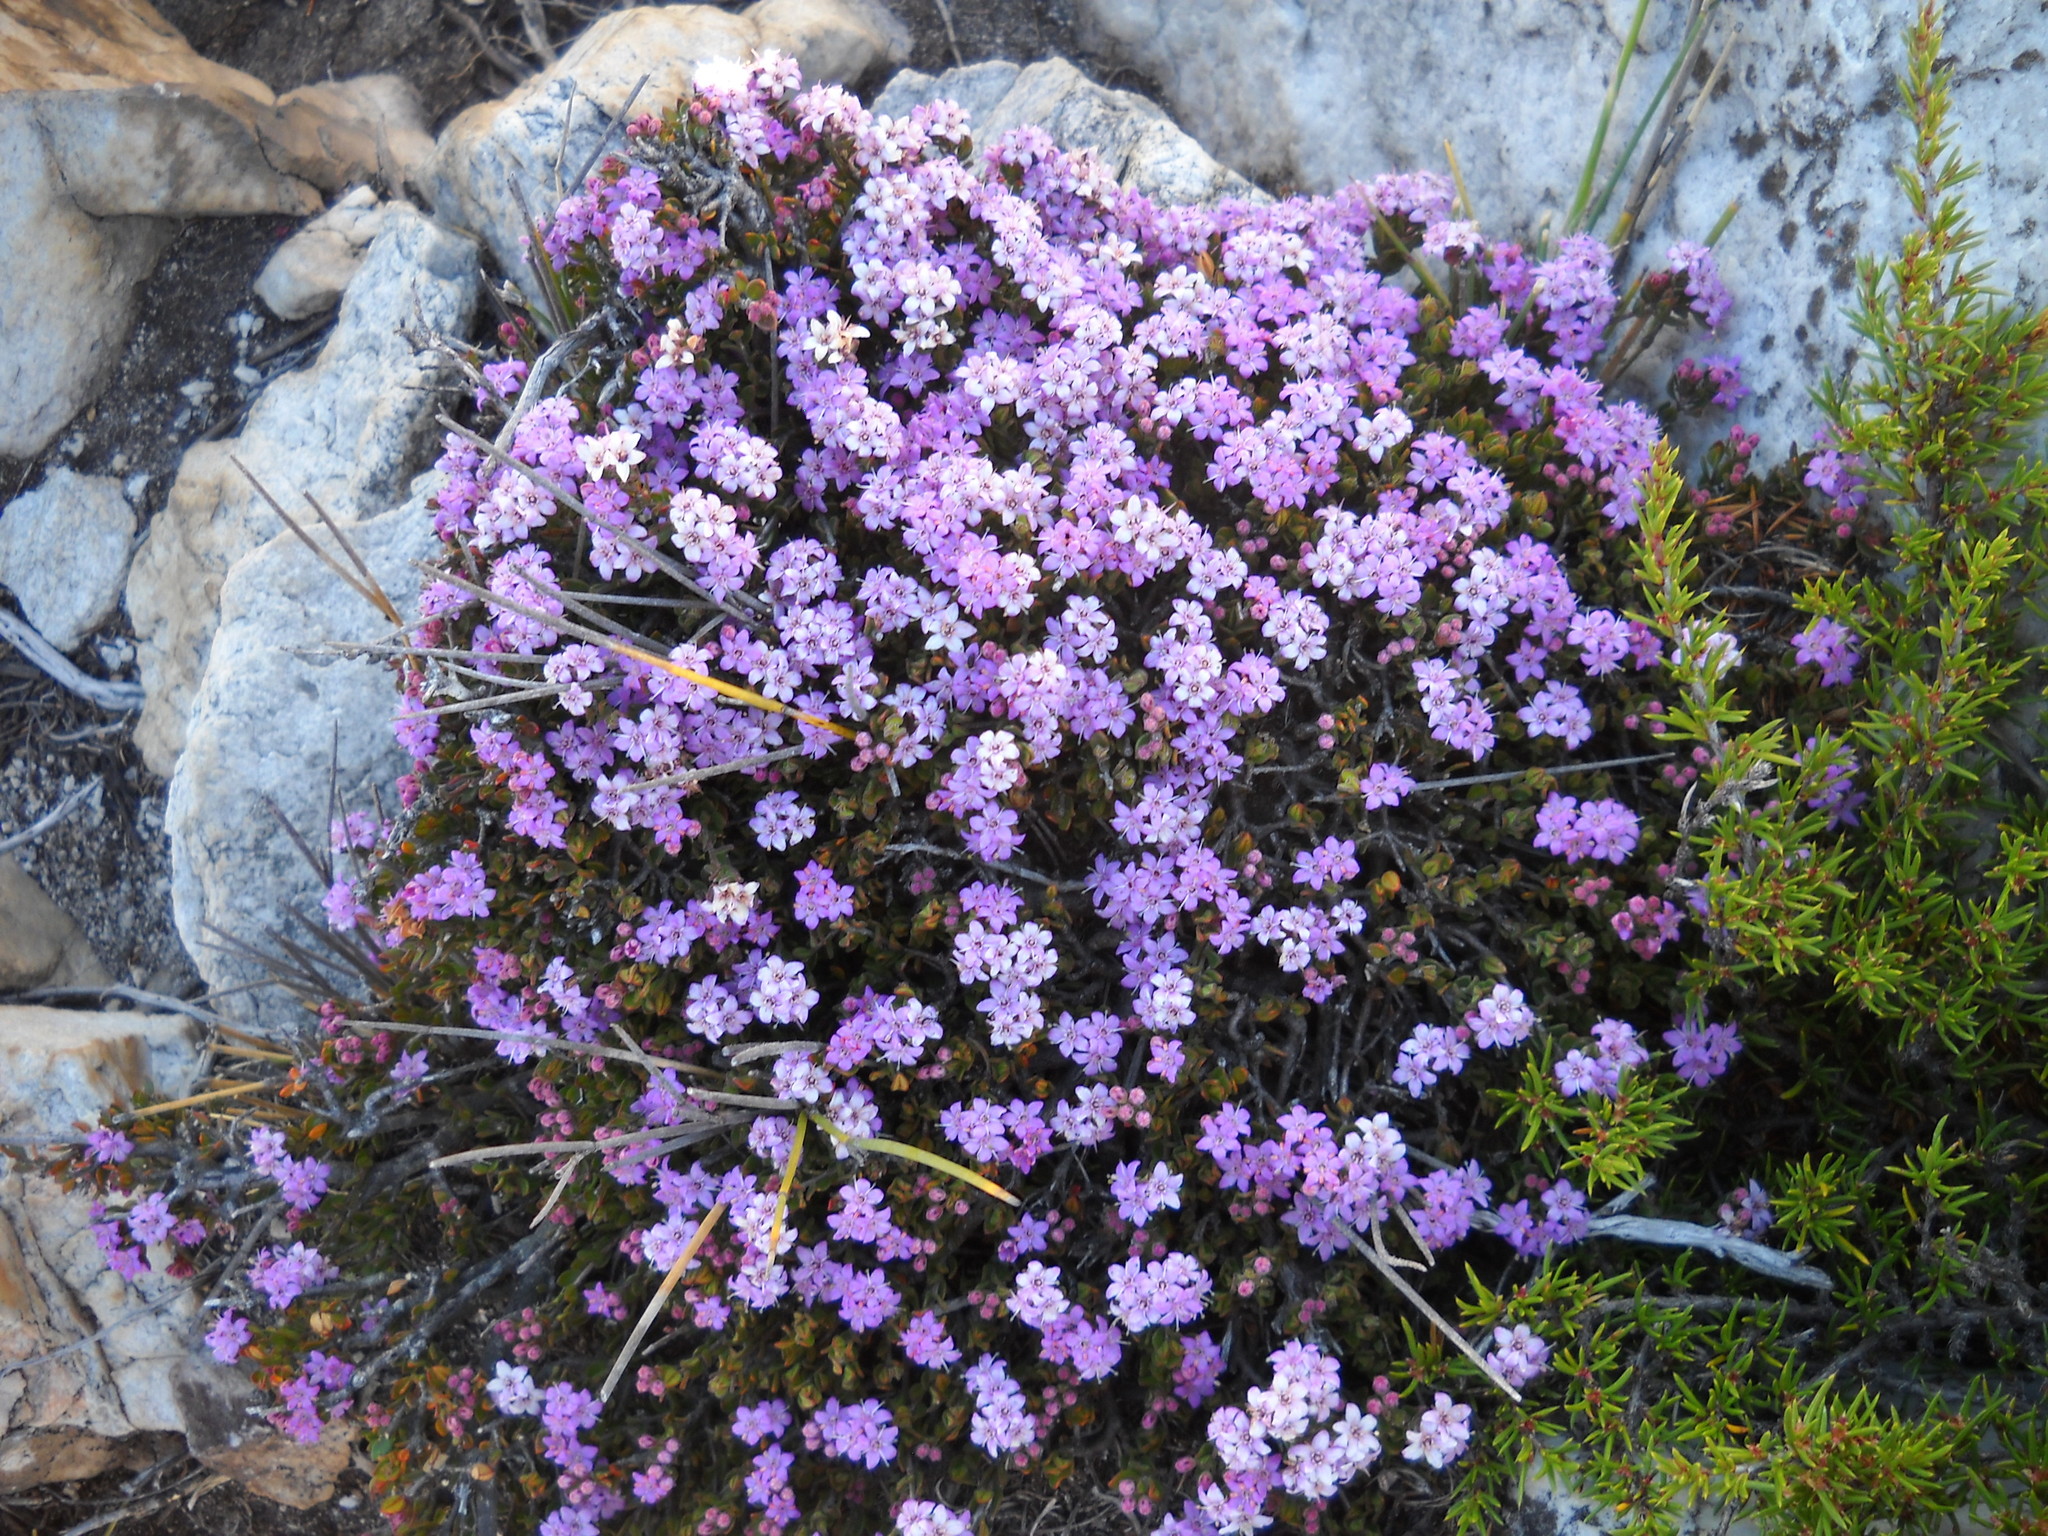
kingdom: Plantae
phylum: Tracheophyta
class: Magnoliopsida
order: Sapindales
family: Rutaceae
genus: Agathosma
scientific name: Agathosma zwartbergense
